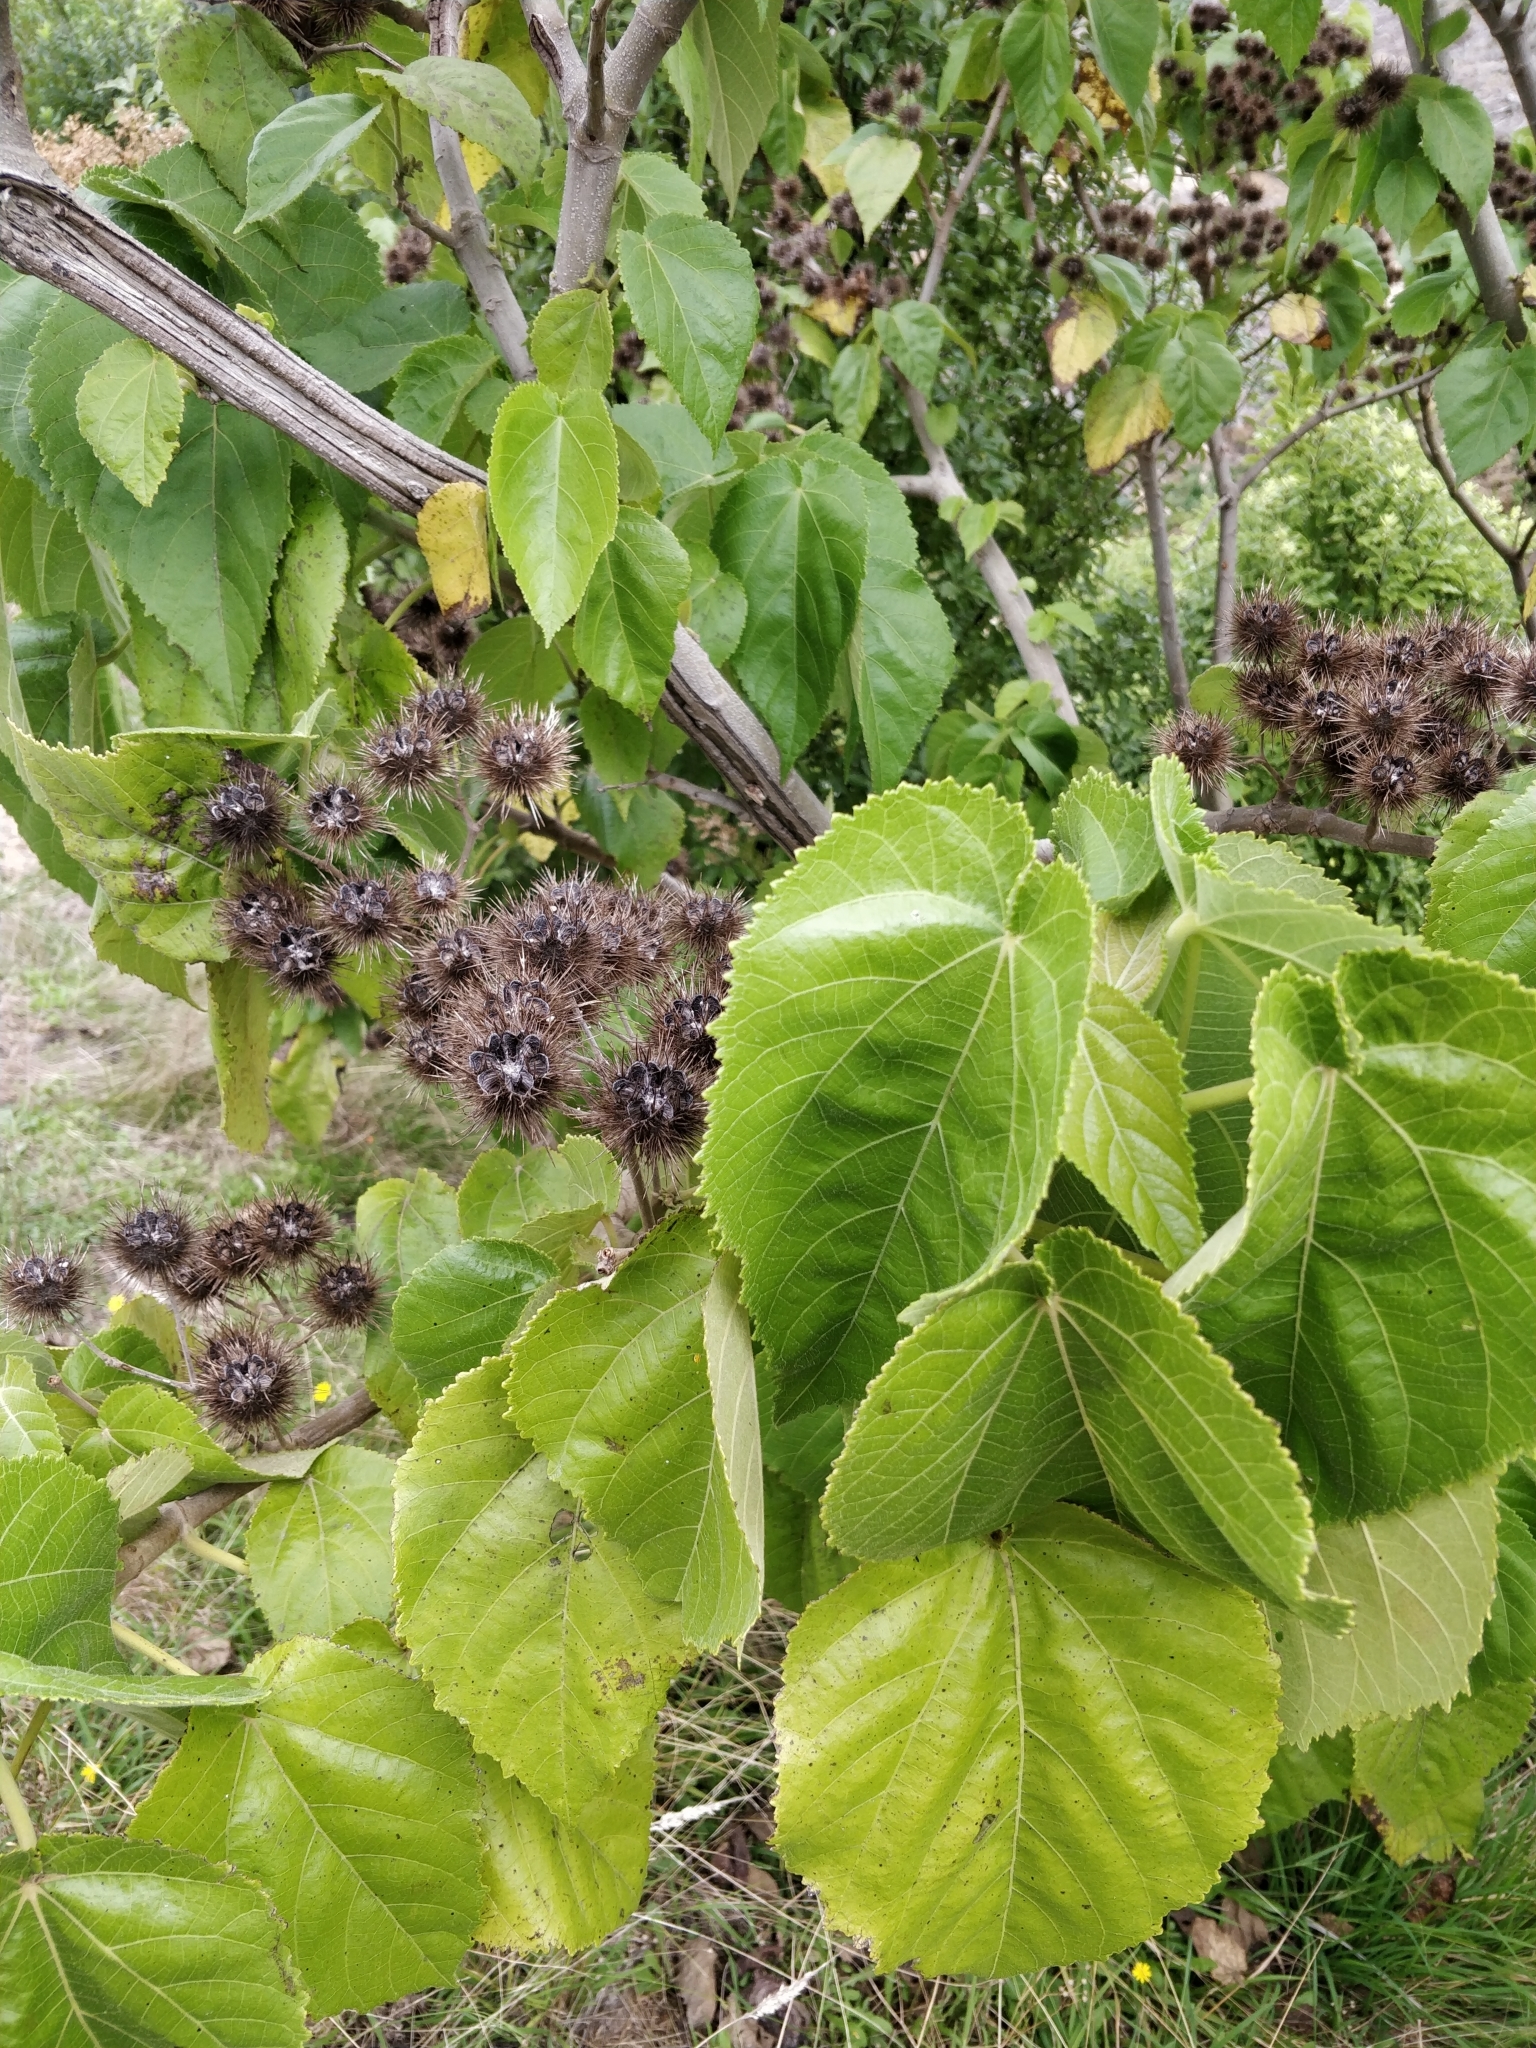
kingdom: Plantae
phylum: Tracheophyta
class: Magnoliopsida
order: Malvales
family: Malvaceae
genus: Entelea
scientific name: Entelea arborescens
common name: New zealand-mulberry
